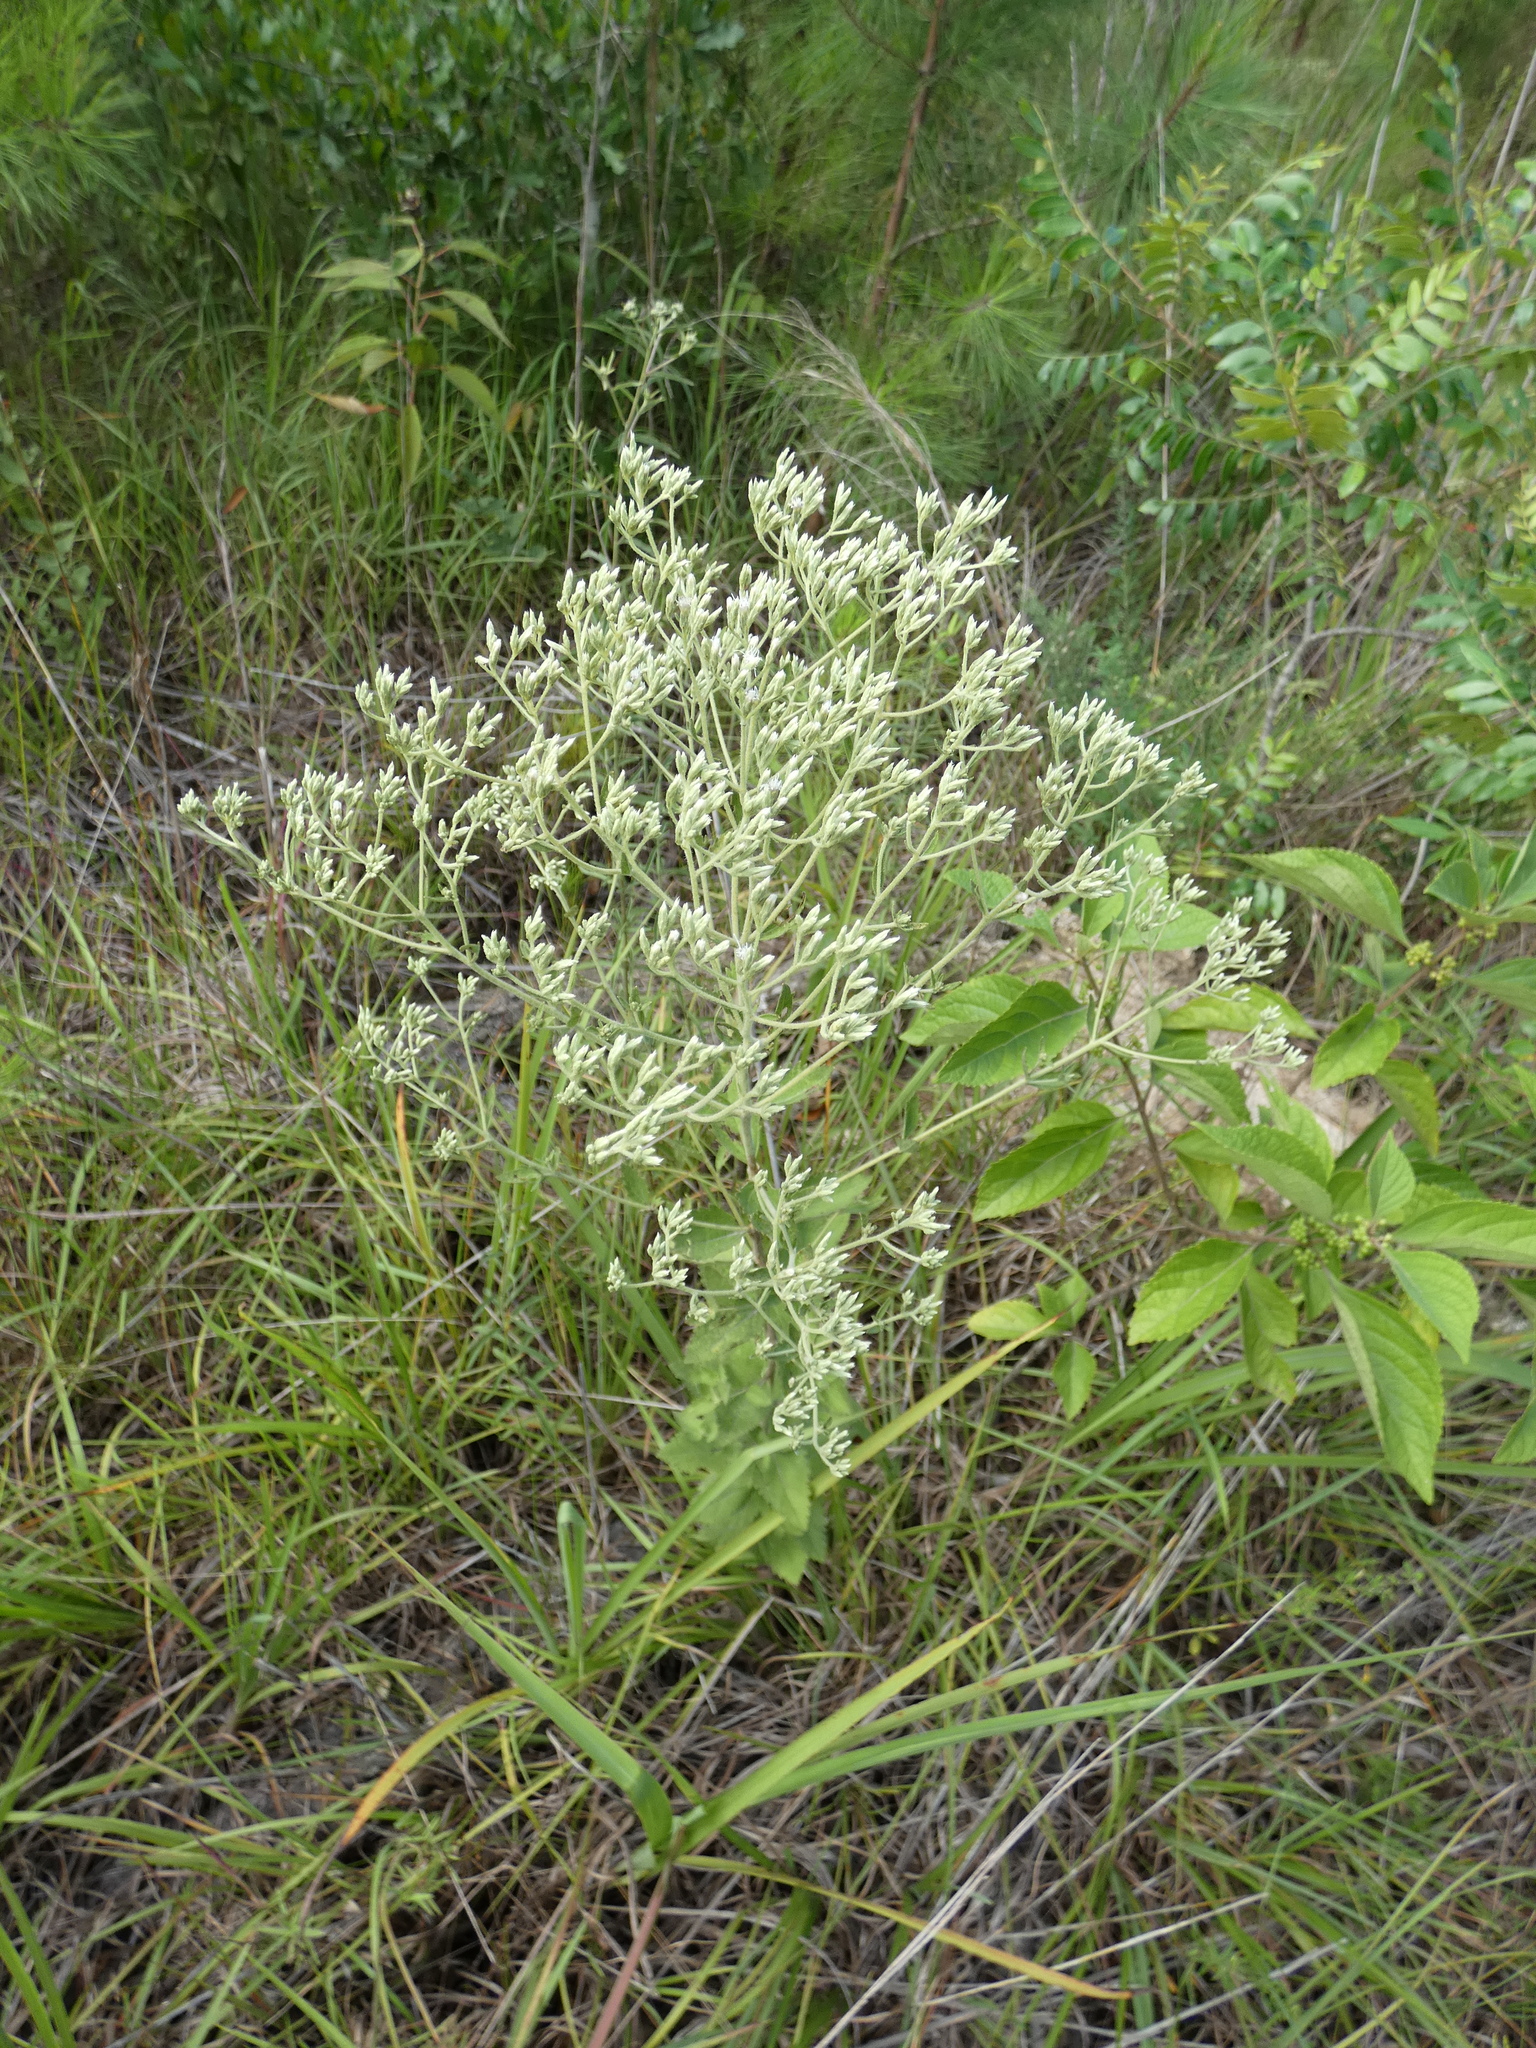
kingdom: Plantae
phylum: Tracheophyta
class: Magnoliopsida
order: Asterales
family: Asteraceae
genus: Eupatorium
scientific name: Eupatorium rotundifolium
